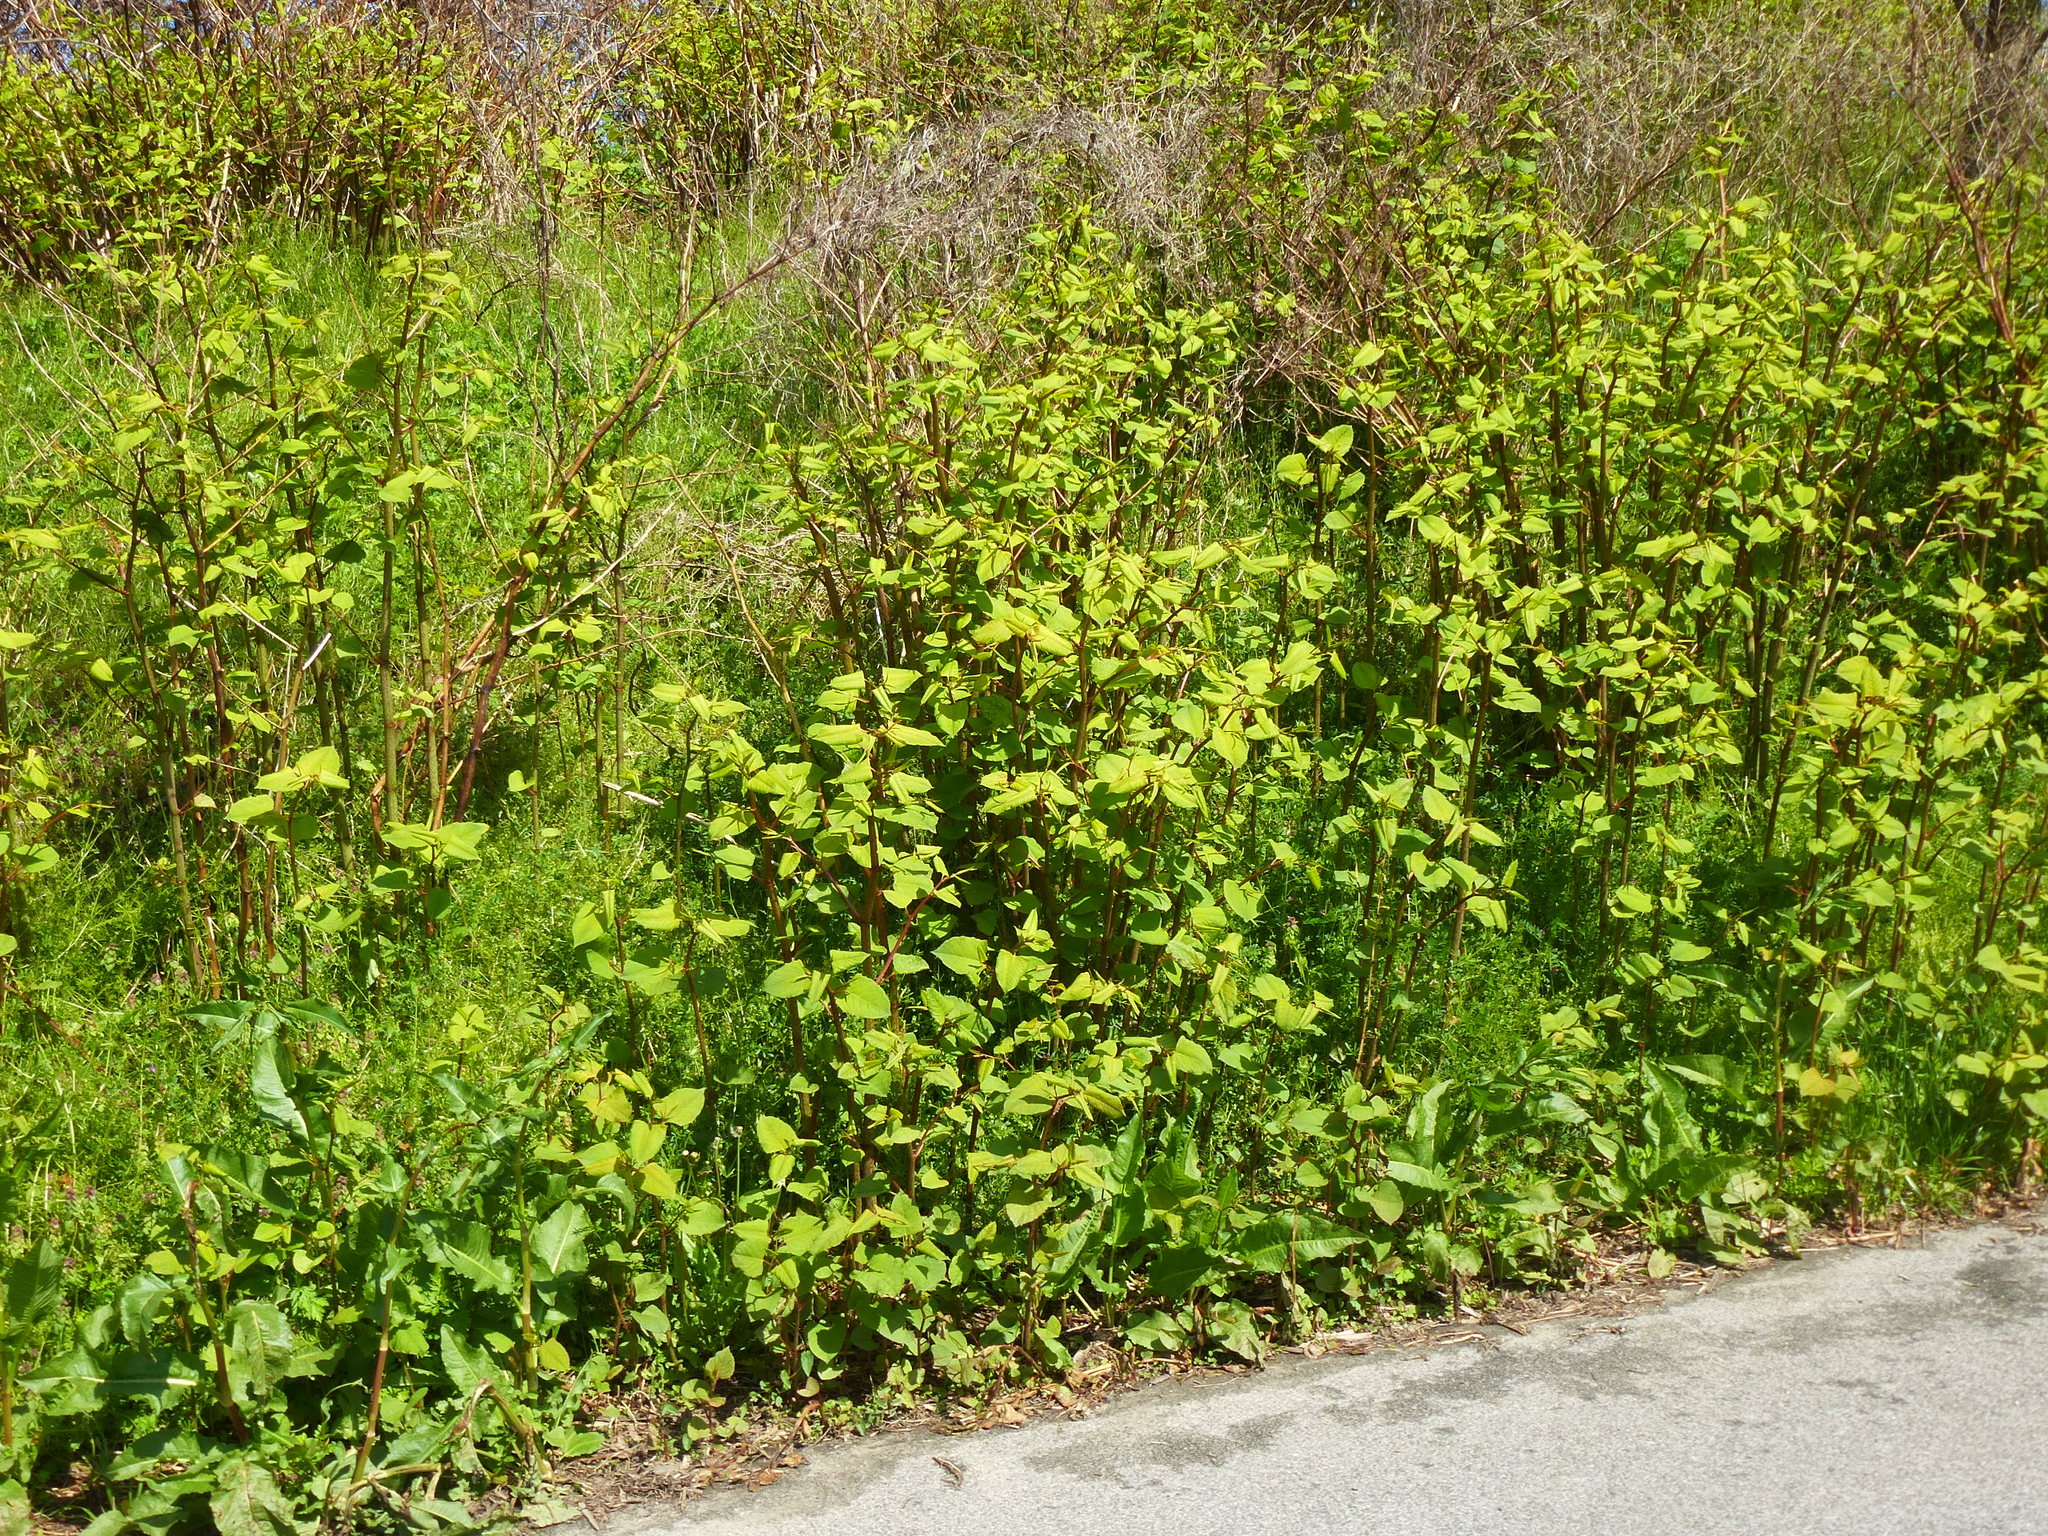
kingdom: Plantae
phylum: Tracheophyta
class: Magnoliopsida
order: Caryophyllales
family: Polygonaceae
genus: Reynoutria
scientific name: Reynoutria japonica
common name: Japanese knotweed
